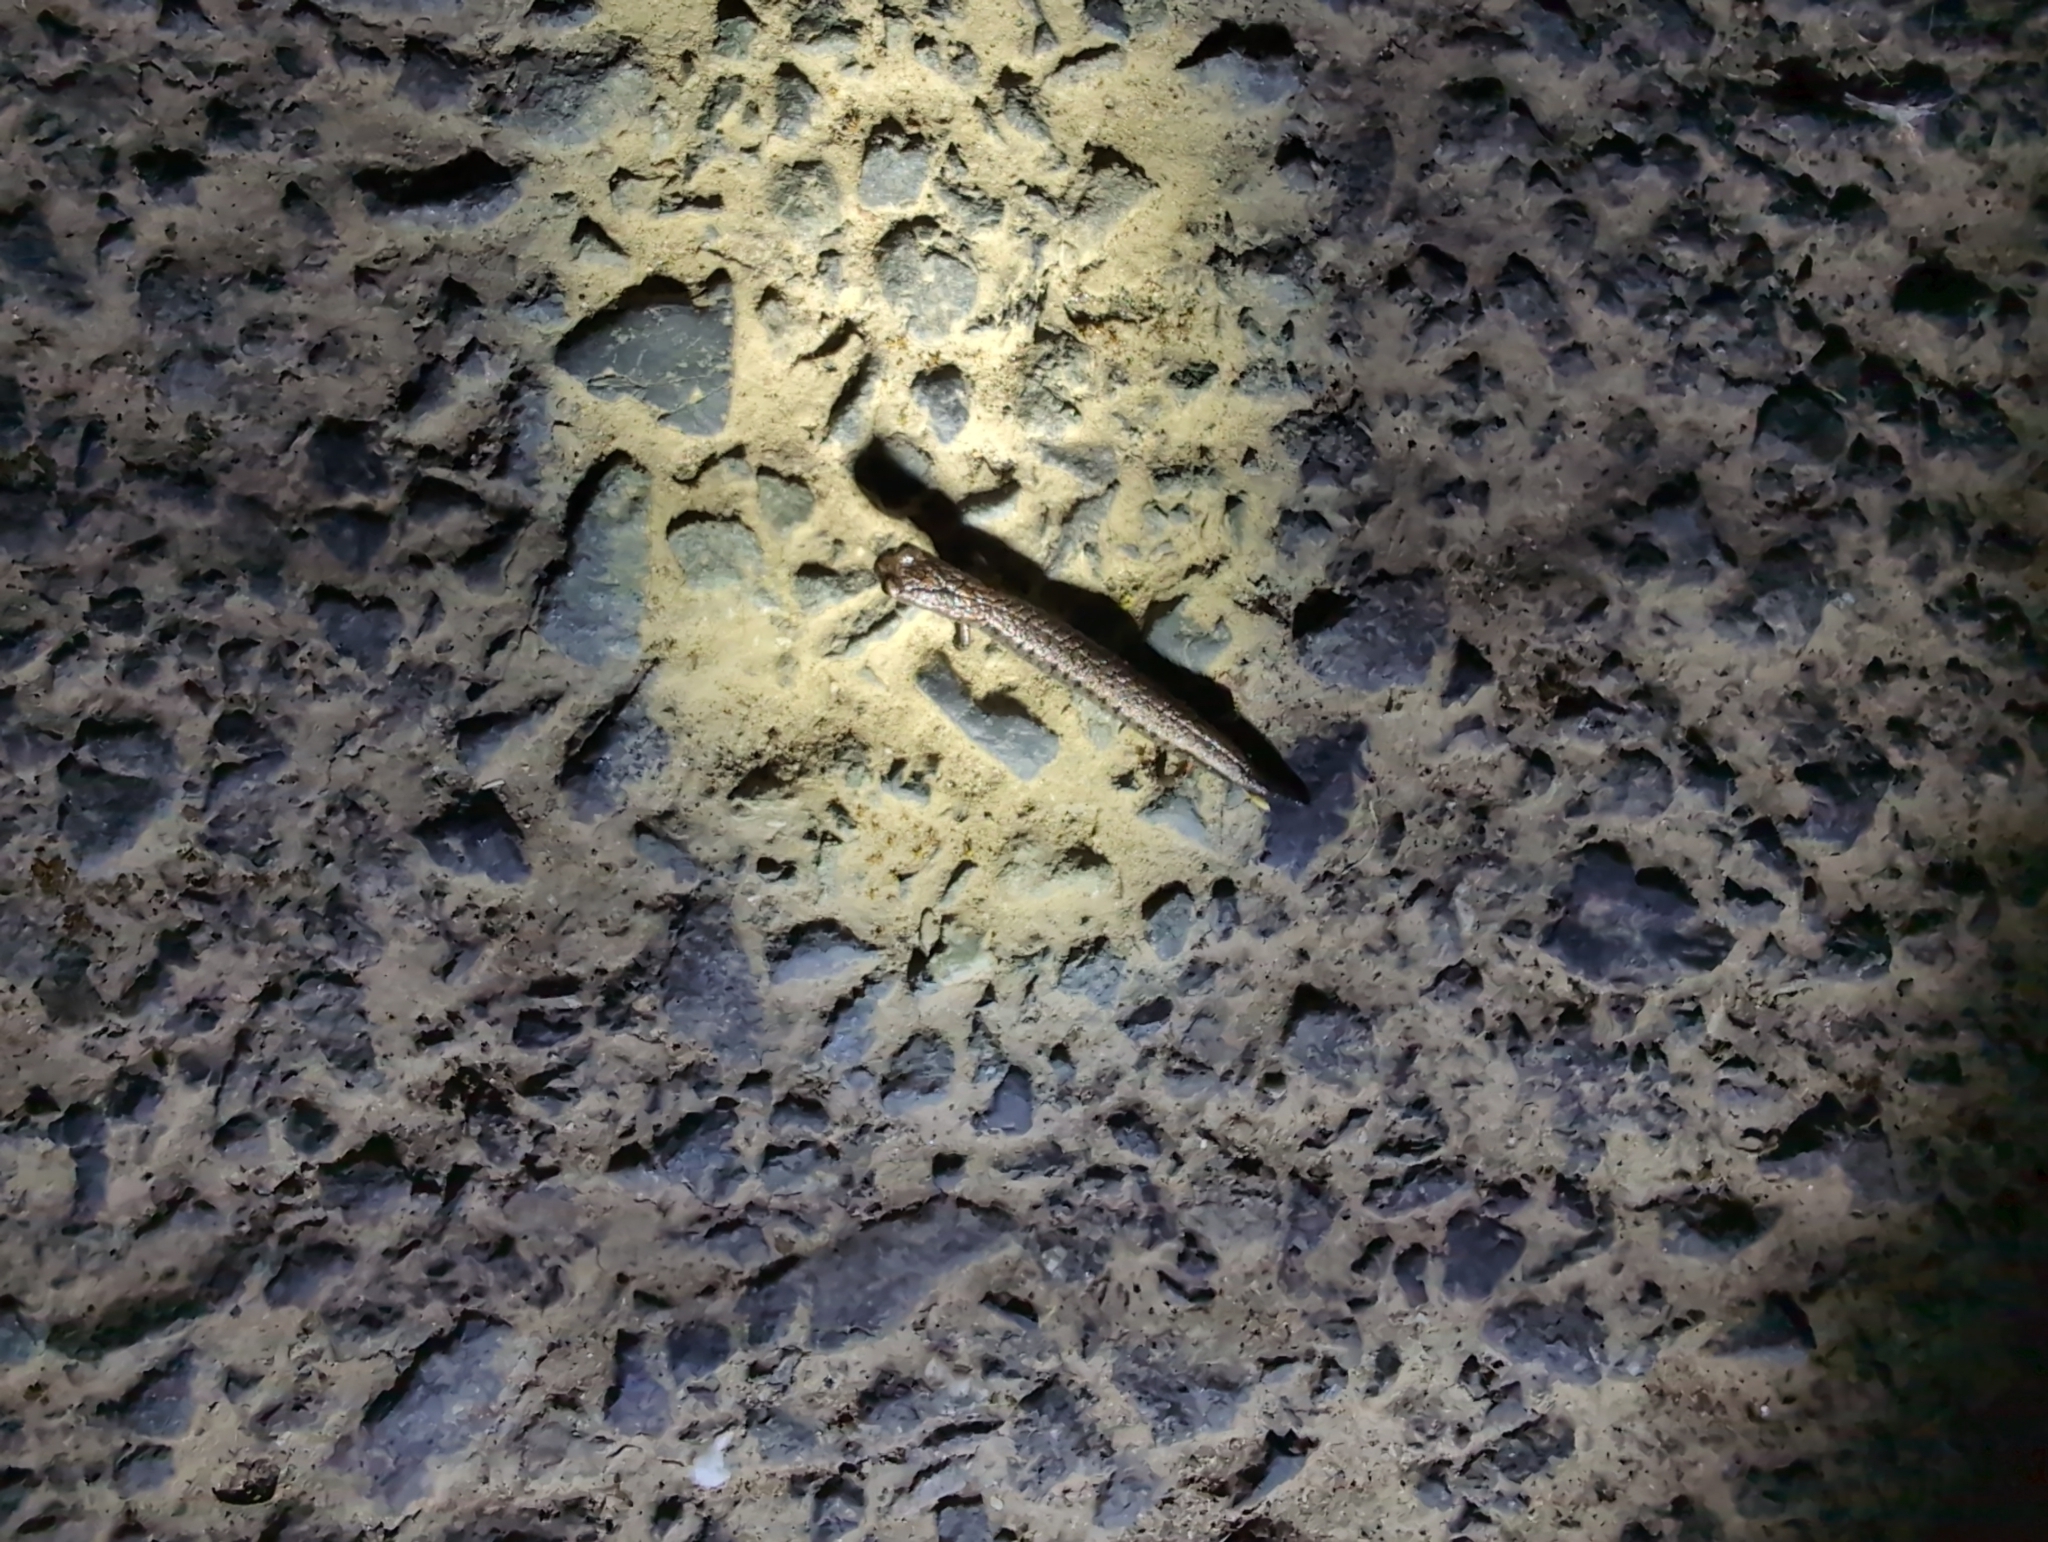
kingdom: Animalia
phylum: Chordata
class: Amphibia
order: Caudata
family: Plethodontidae
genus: Batrachoseps
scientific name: Batrachoseps attenuatus
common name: California slender salamander
